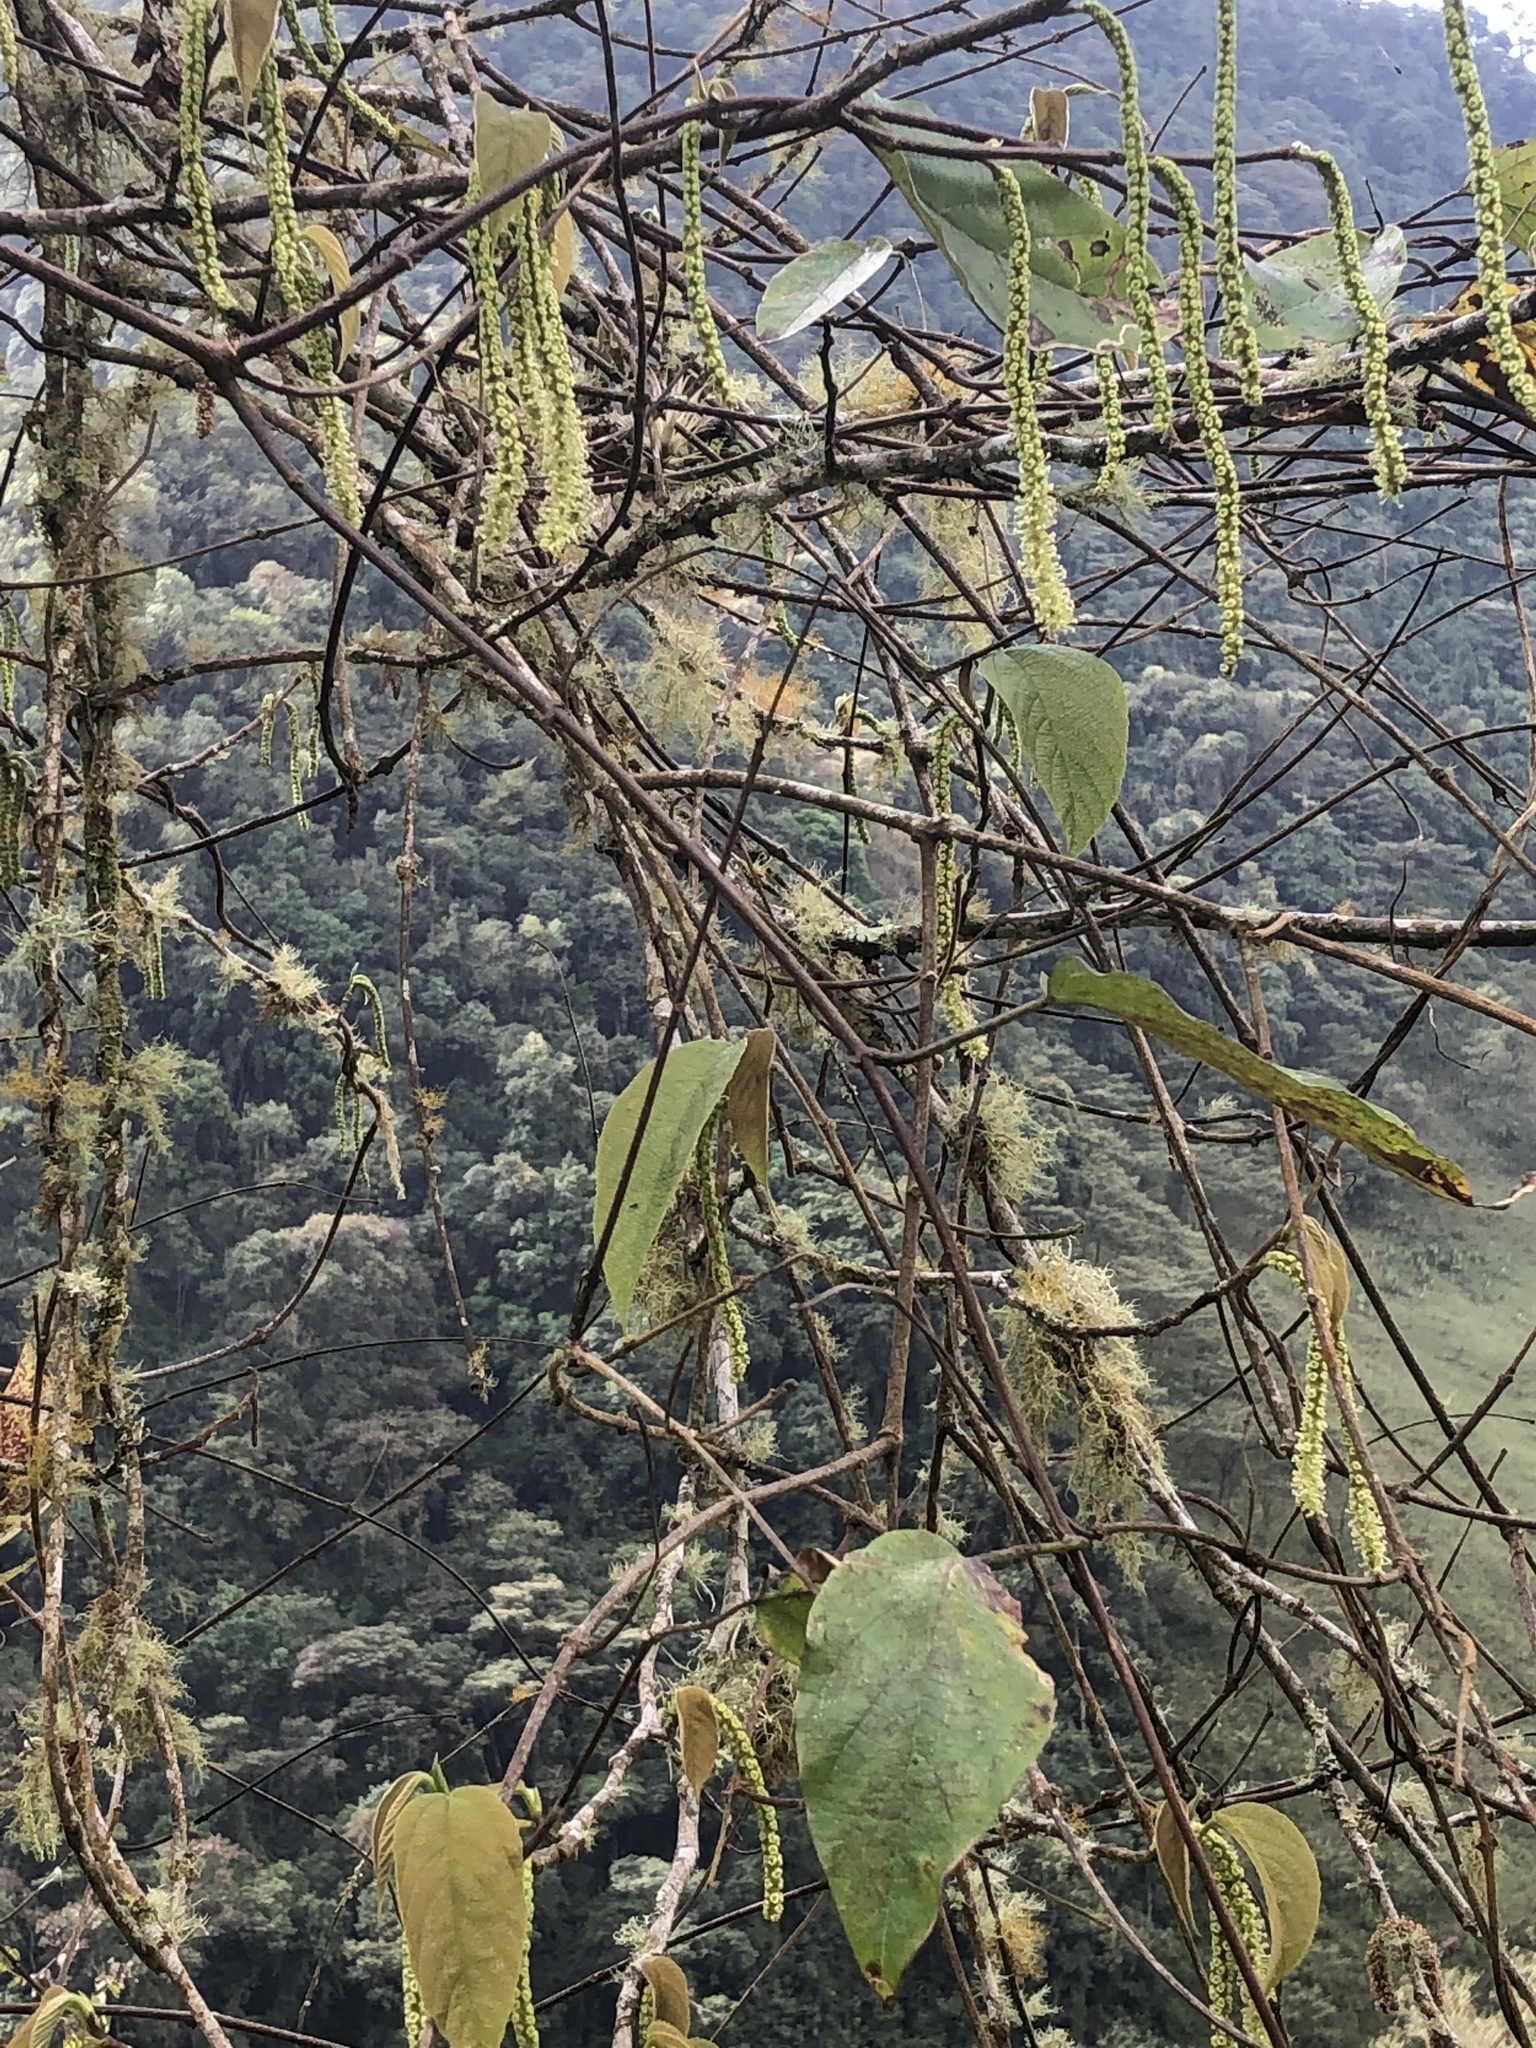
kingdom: Plantae
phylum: Tracheophyta
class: Magnoliopsida
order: Rosales
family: Moraceae
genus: Paratrophis
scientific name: Paratrophis insignis
